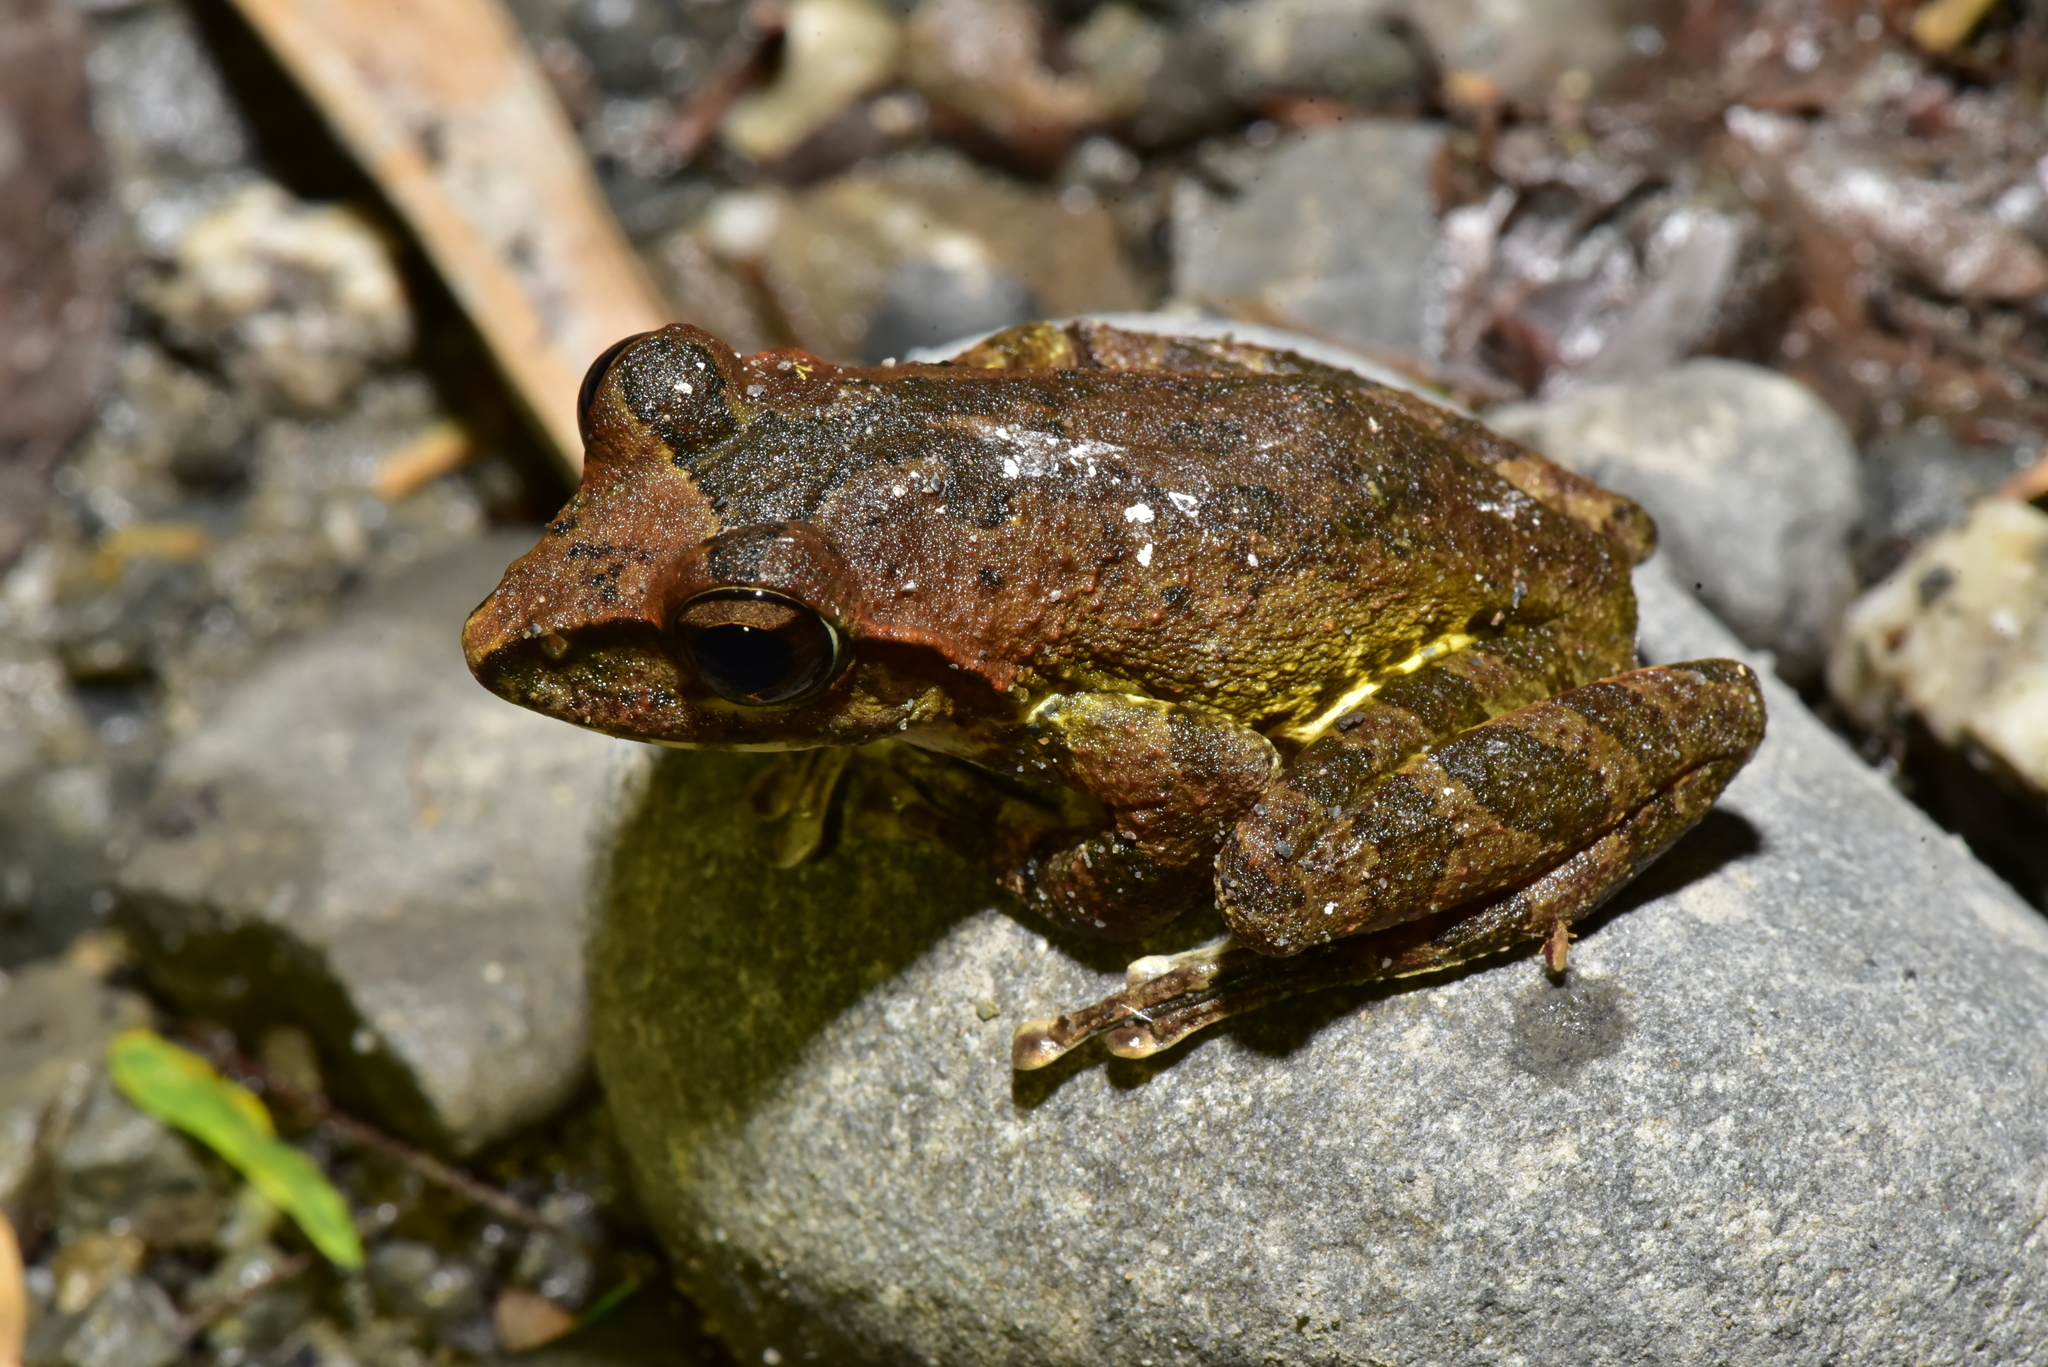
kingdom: Animalia
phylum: Chordata
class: Amphibia
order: Anura
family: Rhacophoridae
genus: Buergeria
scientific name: Buergeria robusta
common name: Brown treefrog
